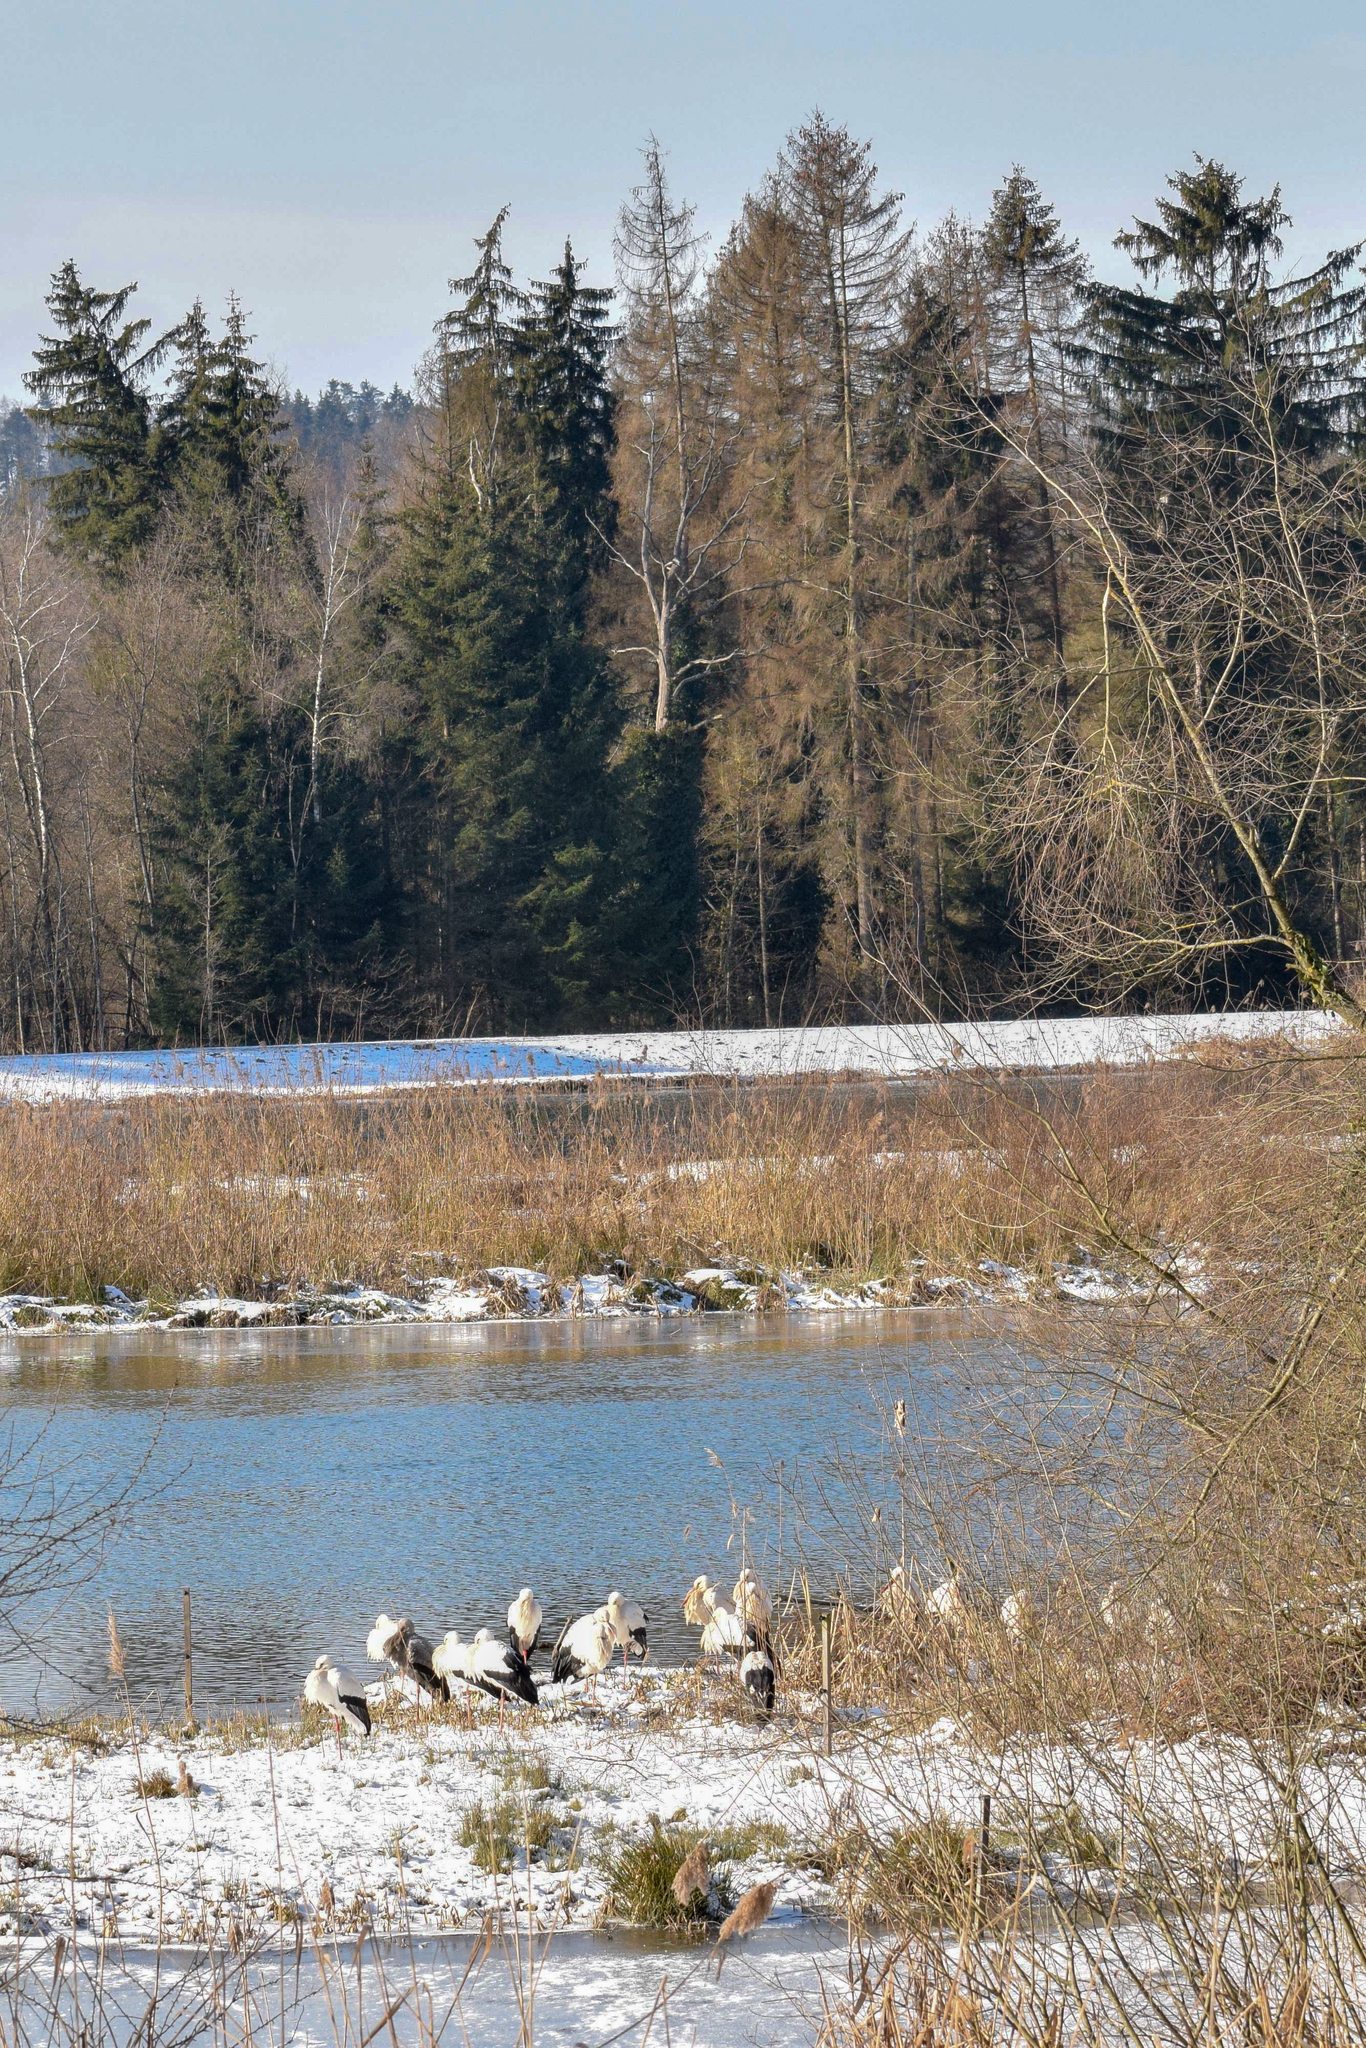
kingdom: Animalia
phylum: Chordata
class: Aves
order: Ciconiiformes
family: Ciconiidae
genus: Ciconia
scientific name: Ciconia ciconia
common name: White stork
